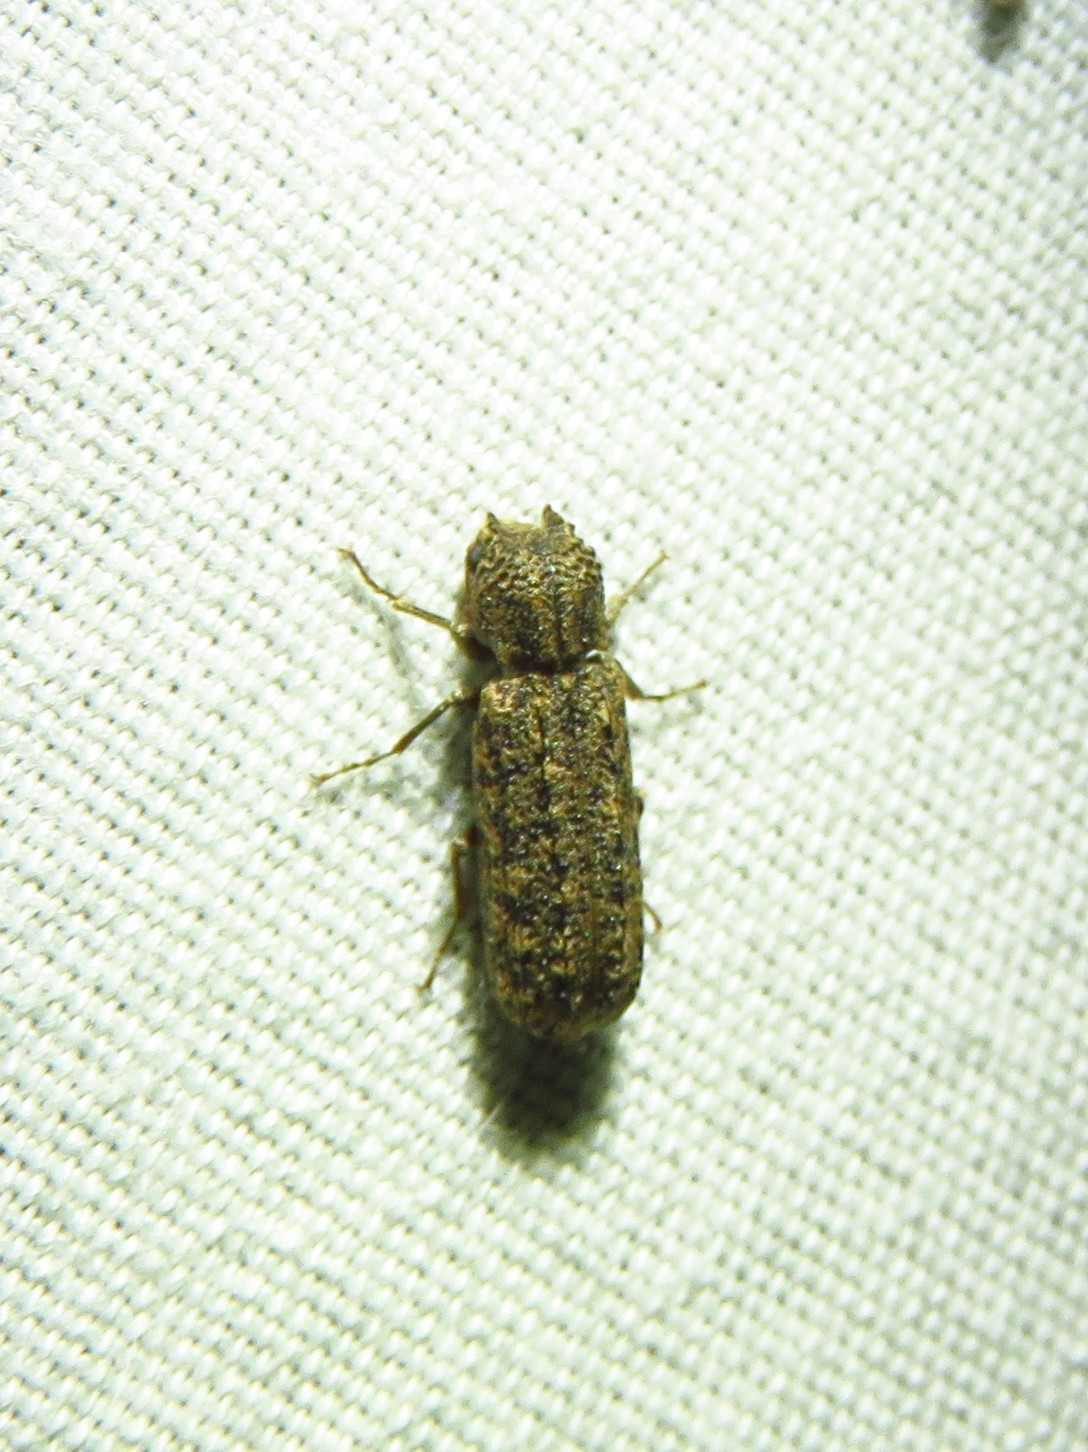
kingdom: Animalia
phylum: Arthropoda
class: Insecta
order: Coleoptera
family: Bostrichidae
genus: Lichenophanes
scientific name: Lichenophanes bicornis
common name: Two-horned powder-post beetle
